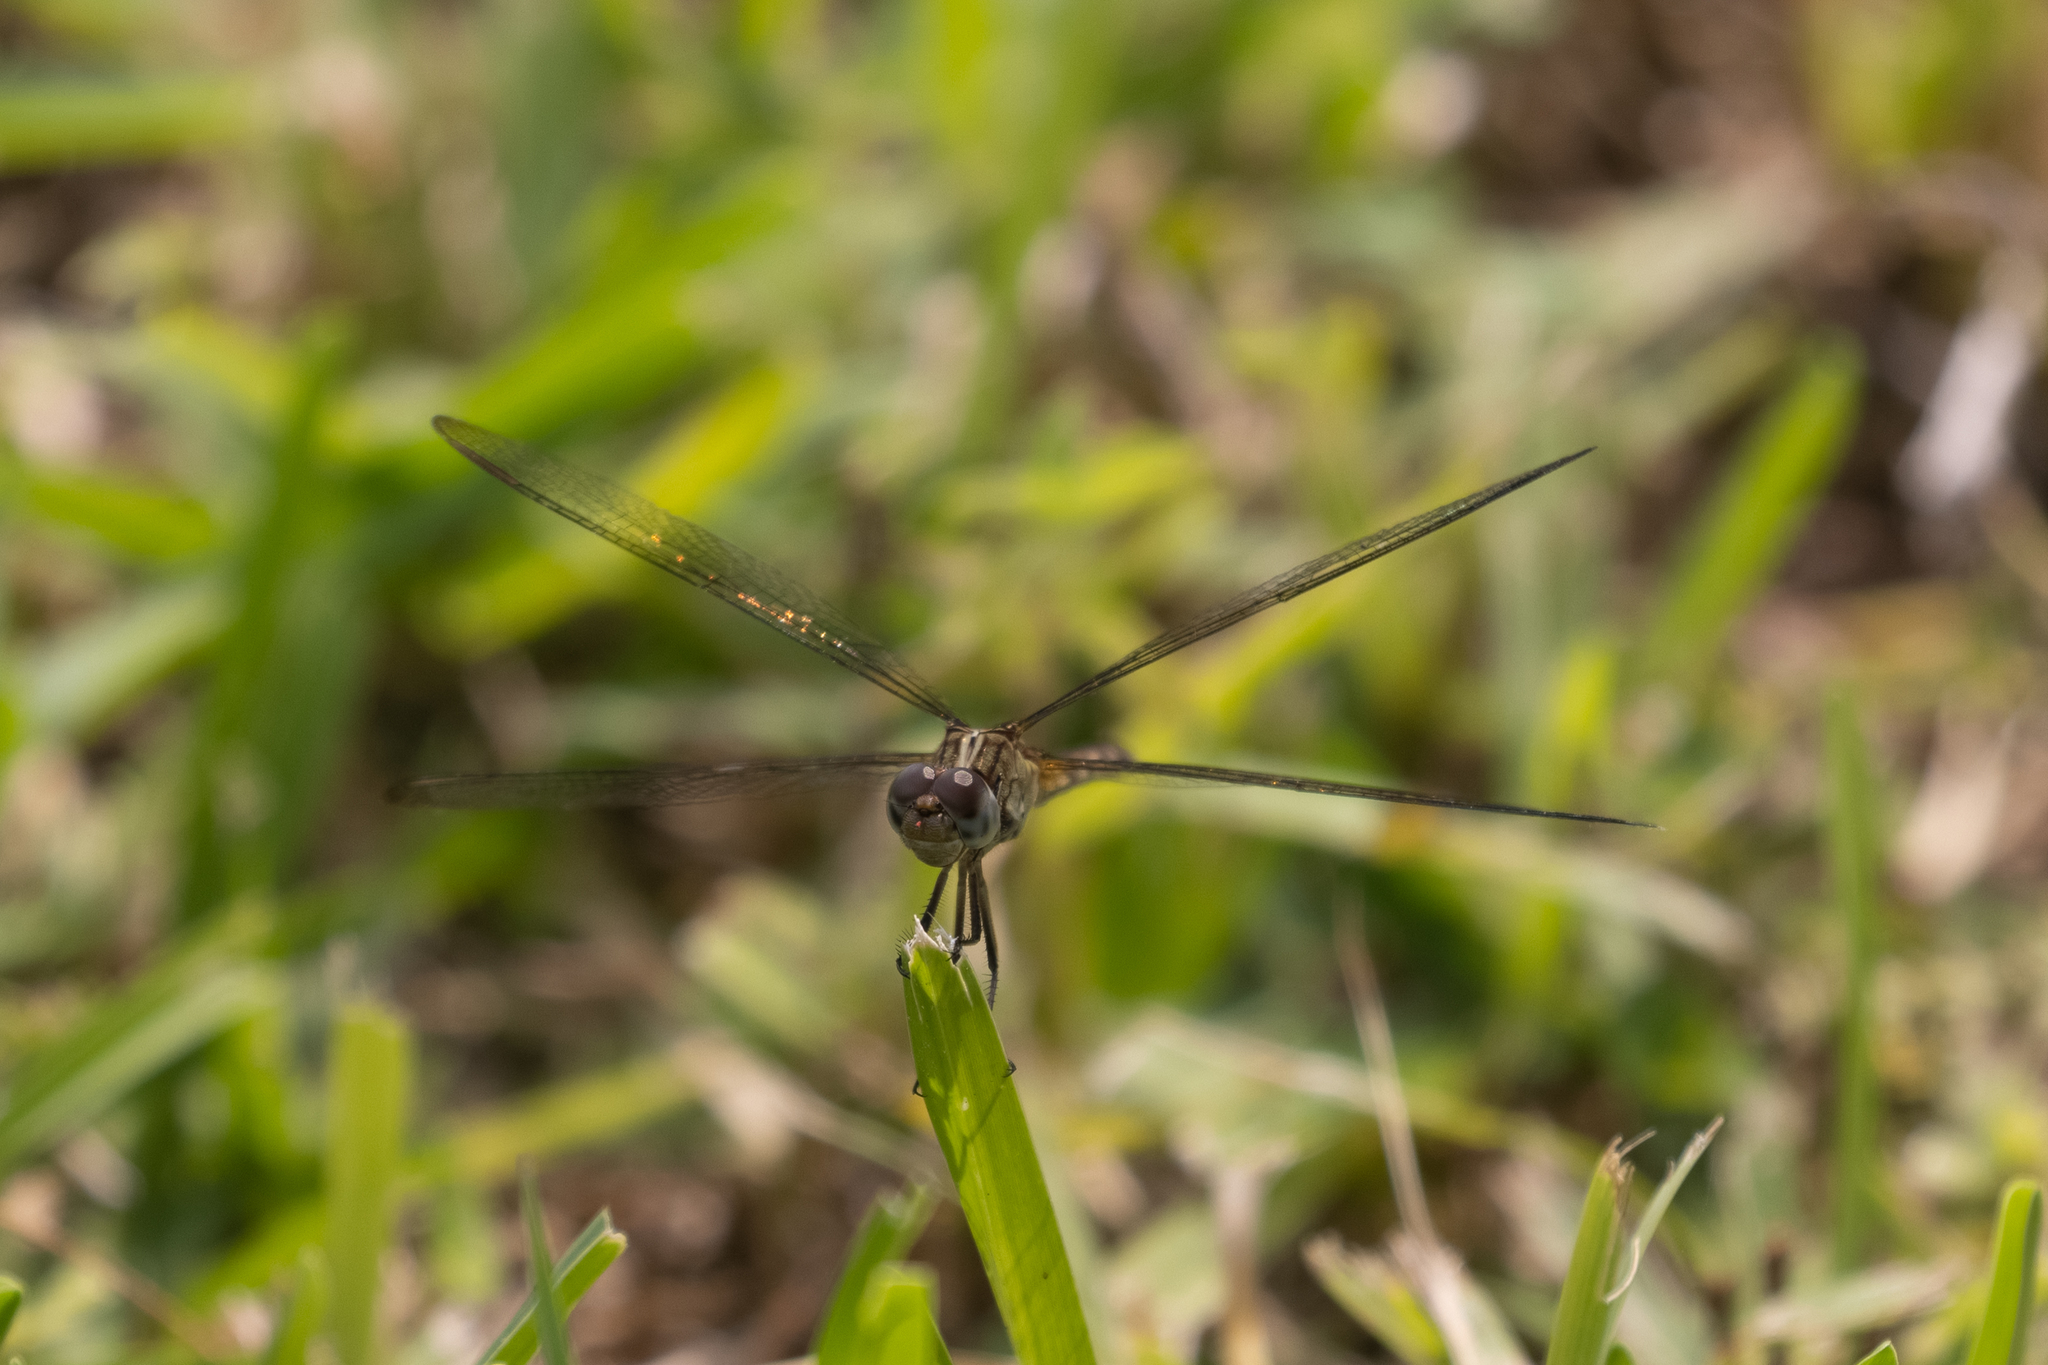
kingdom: Animalia
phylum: Arthropoda
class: Insecta
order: Odonata
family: Libellulidae
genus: Erythrodiplax
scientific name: Erythrodiplax umbrata
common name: Band-winged dragonlet
